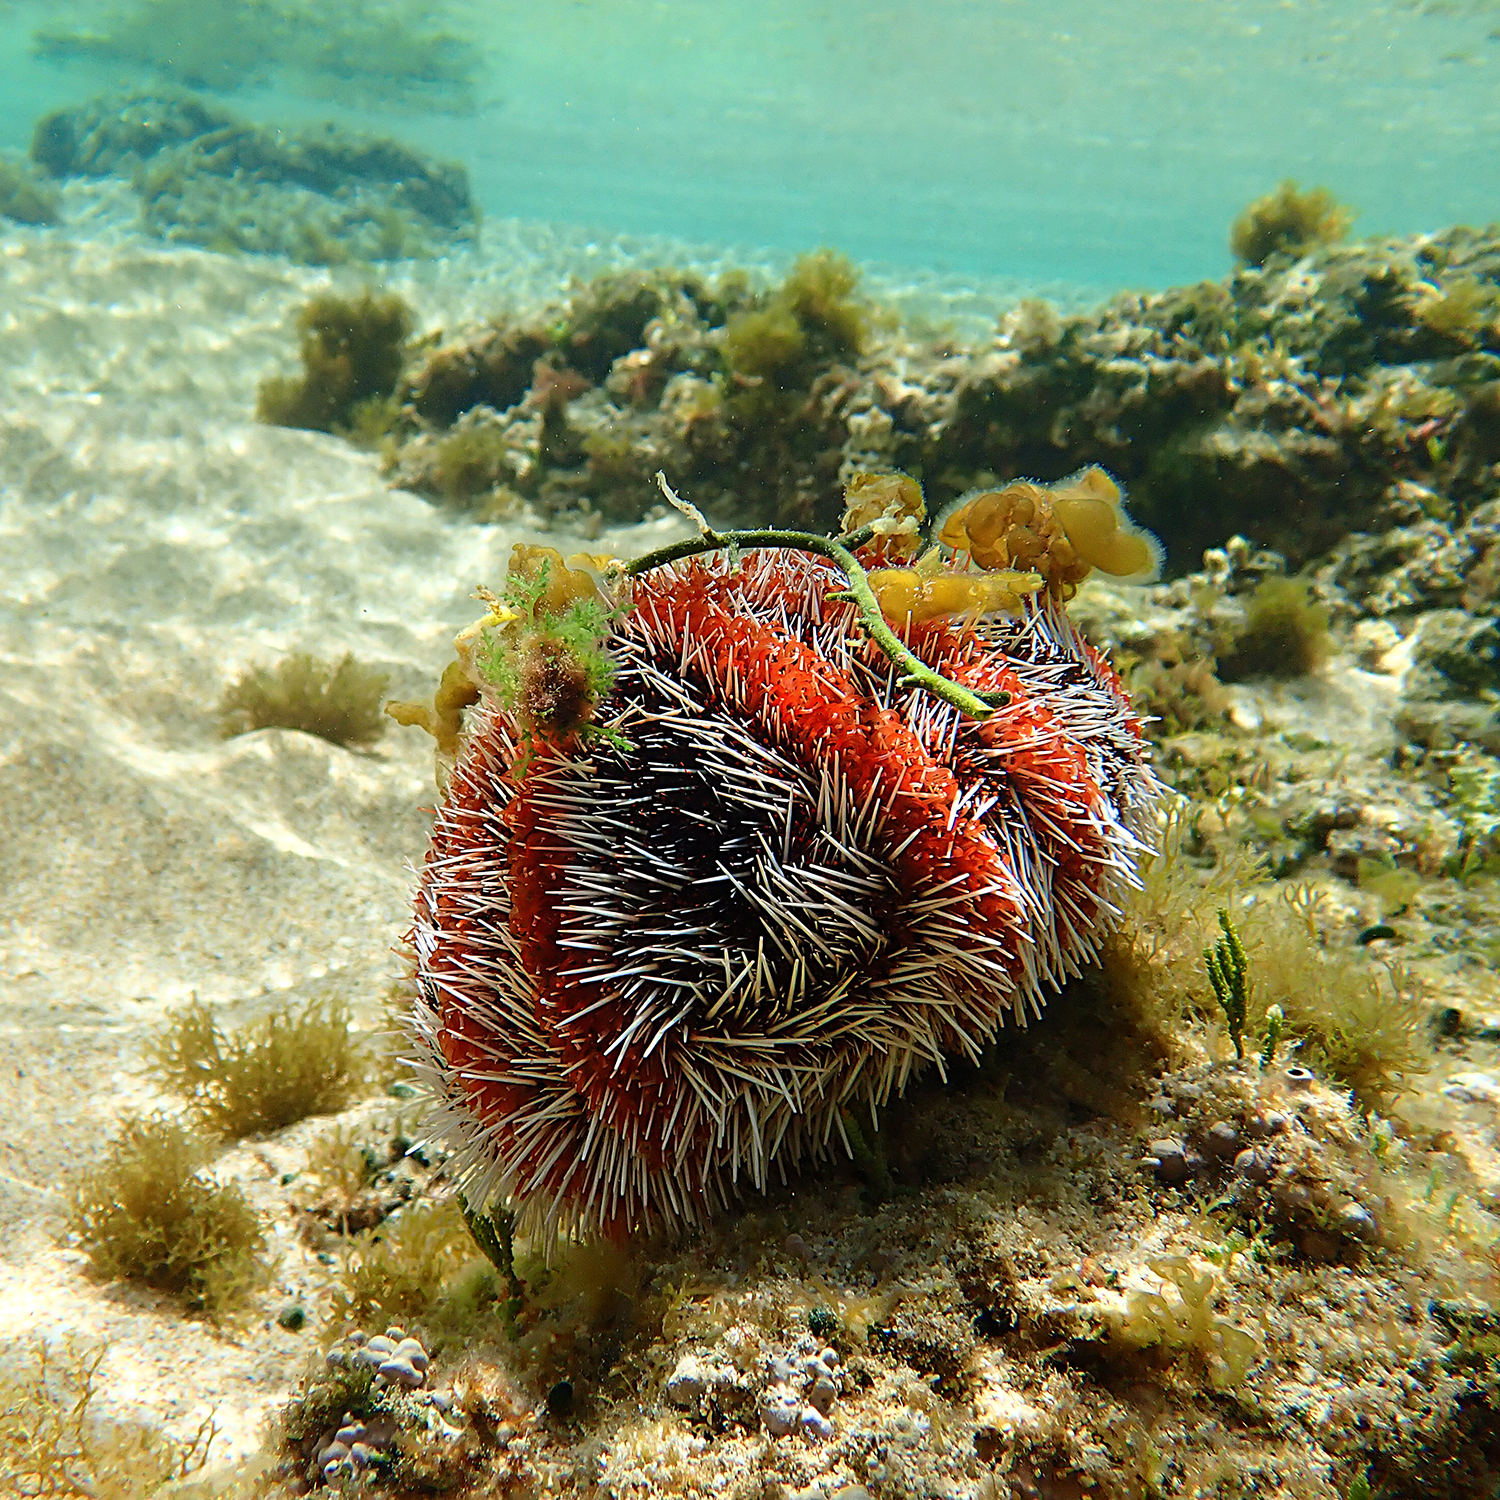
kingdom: Animalia
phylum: Echinodermata
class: Echinoidea
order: Camarodonta
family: Toxopneustidae
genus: Tripneustes
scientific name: Tripneustes gratilla
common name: Bischofsmützenseeigel
